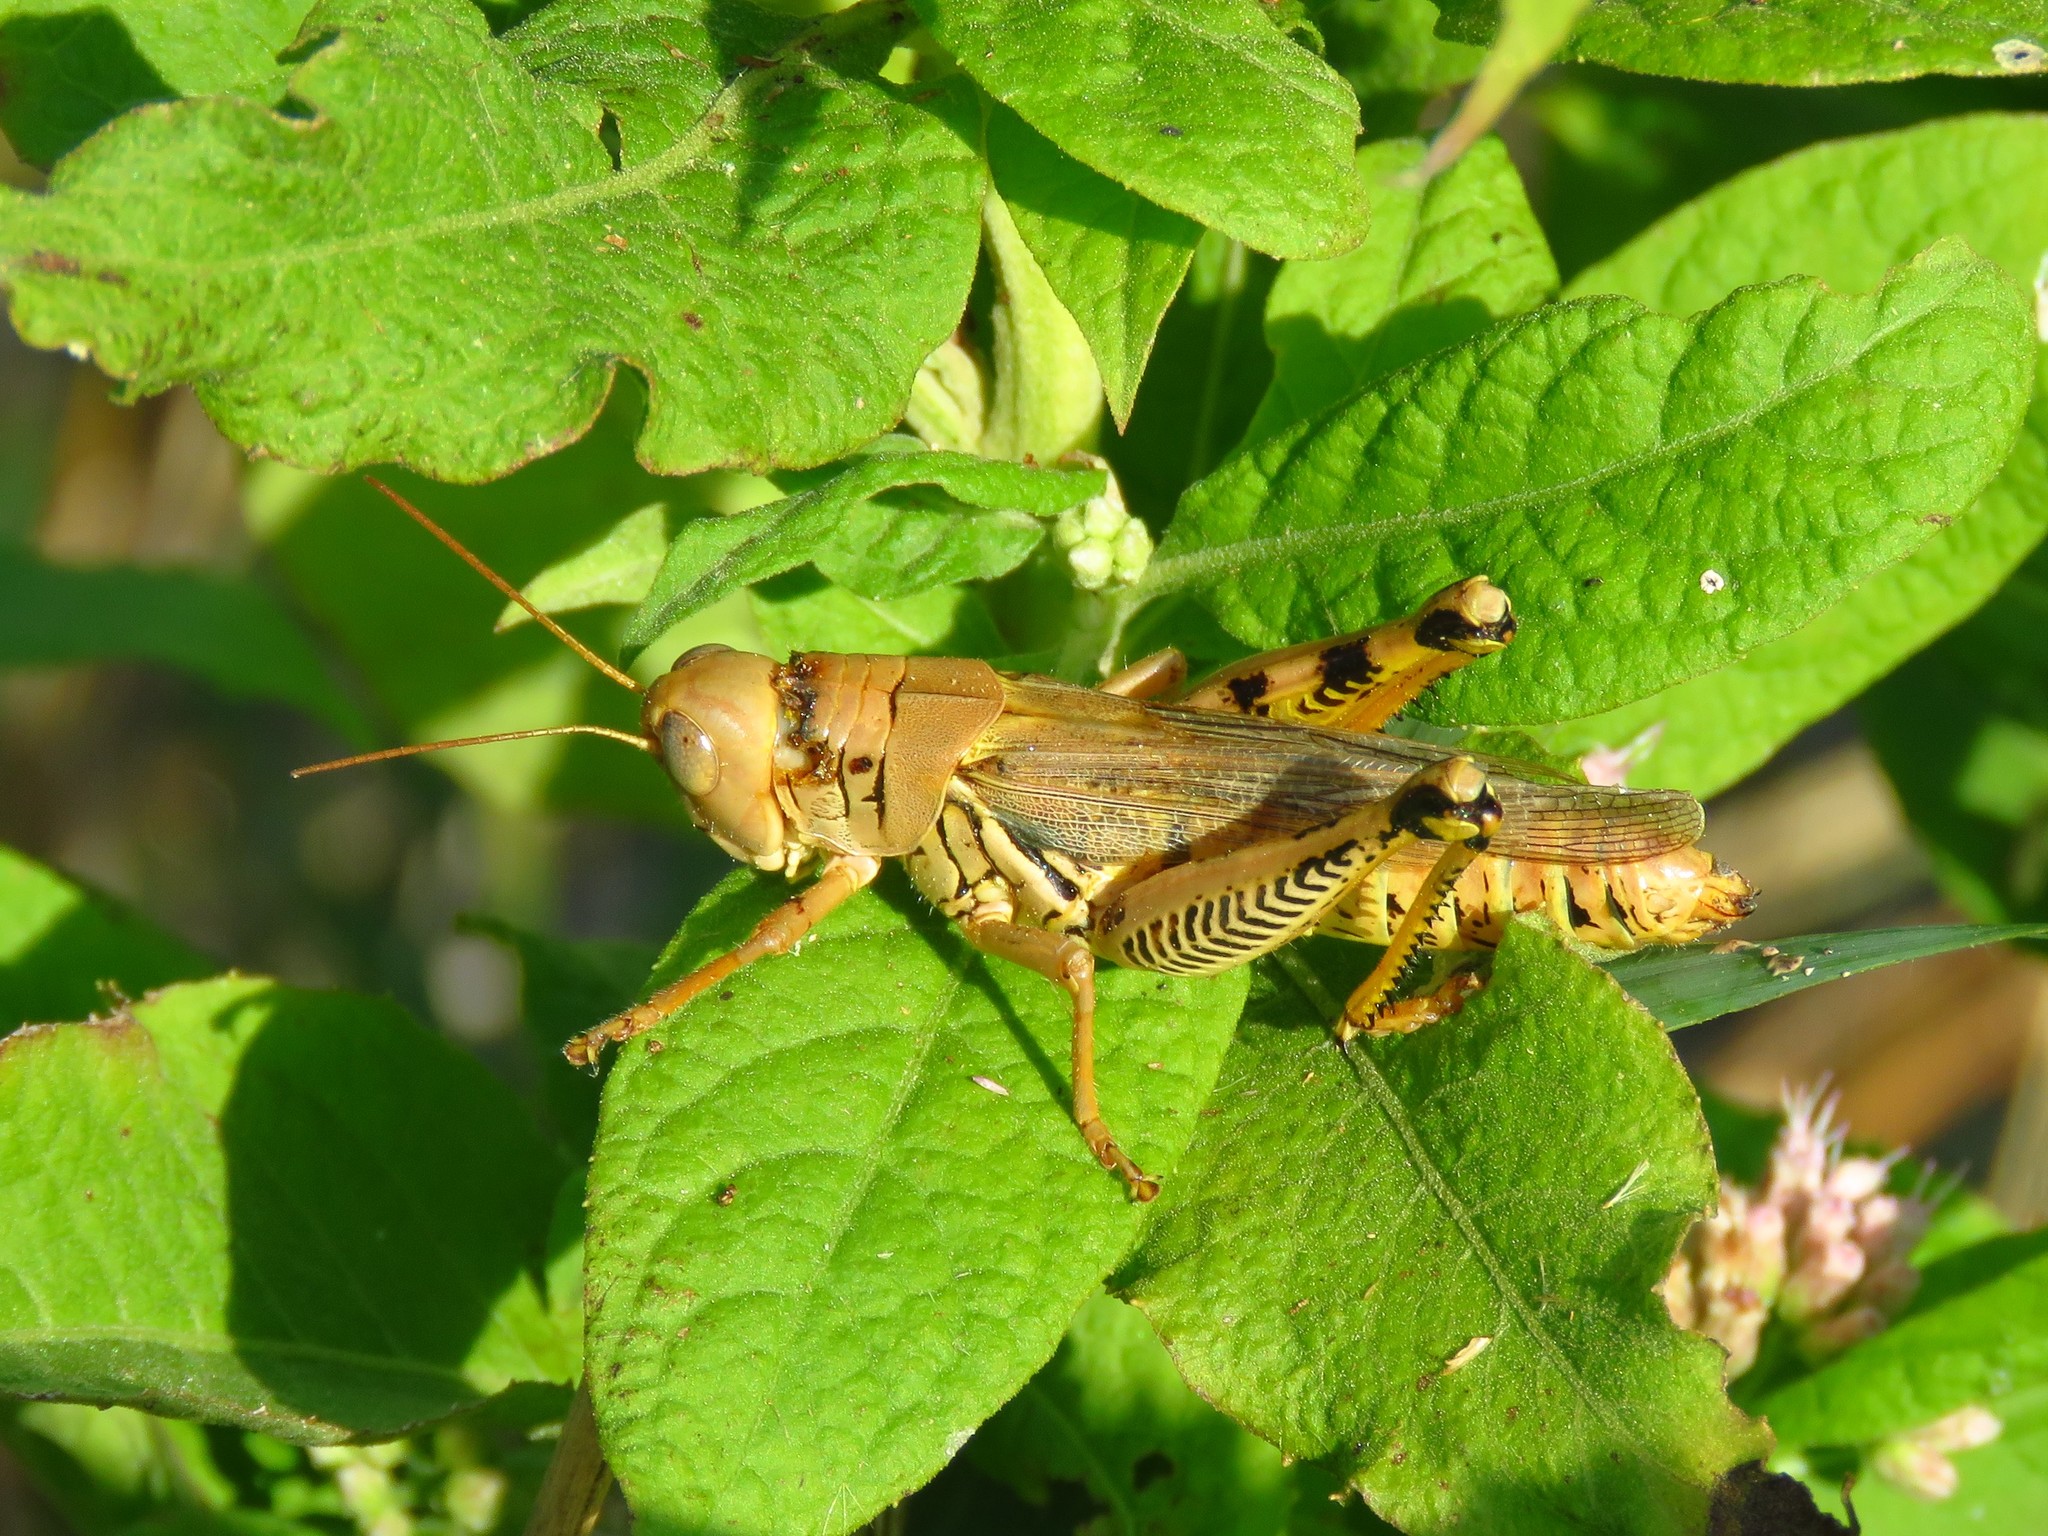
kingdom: Animalia
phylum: Arthropoda
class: Insecta
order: Orthoptera
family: Acrididae
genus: Melanoplus
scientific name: Melanoplus differentialis
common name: Differential grasshopper
